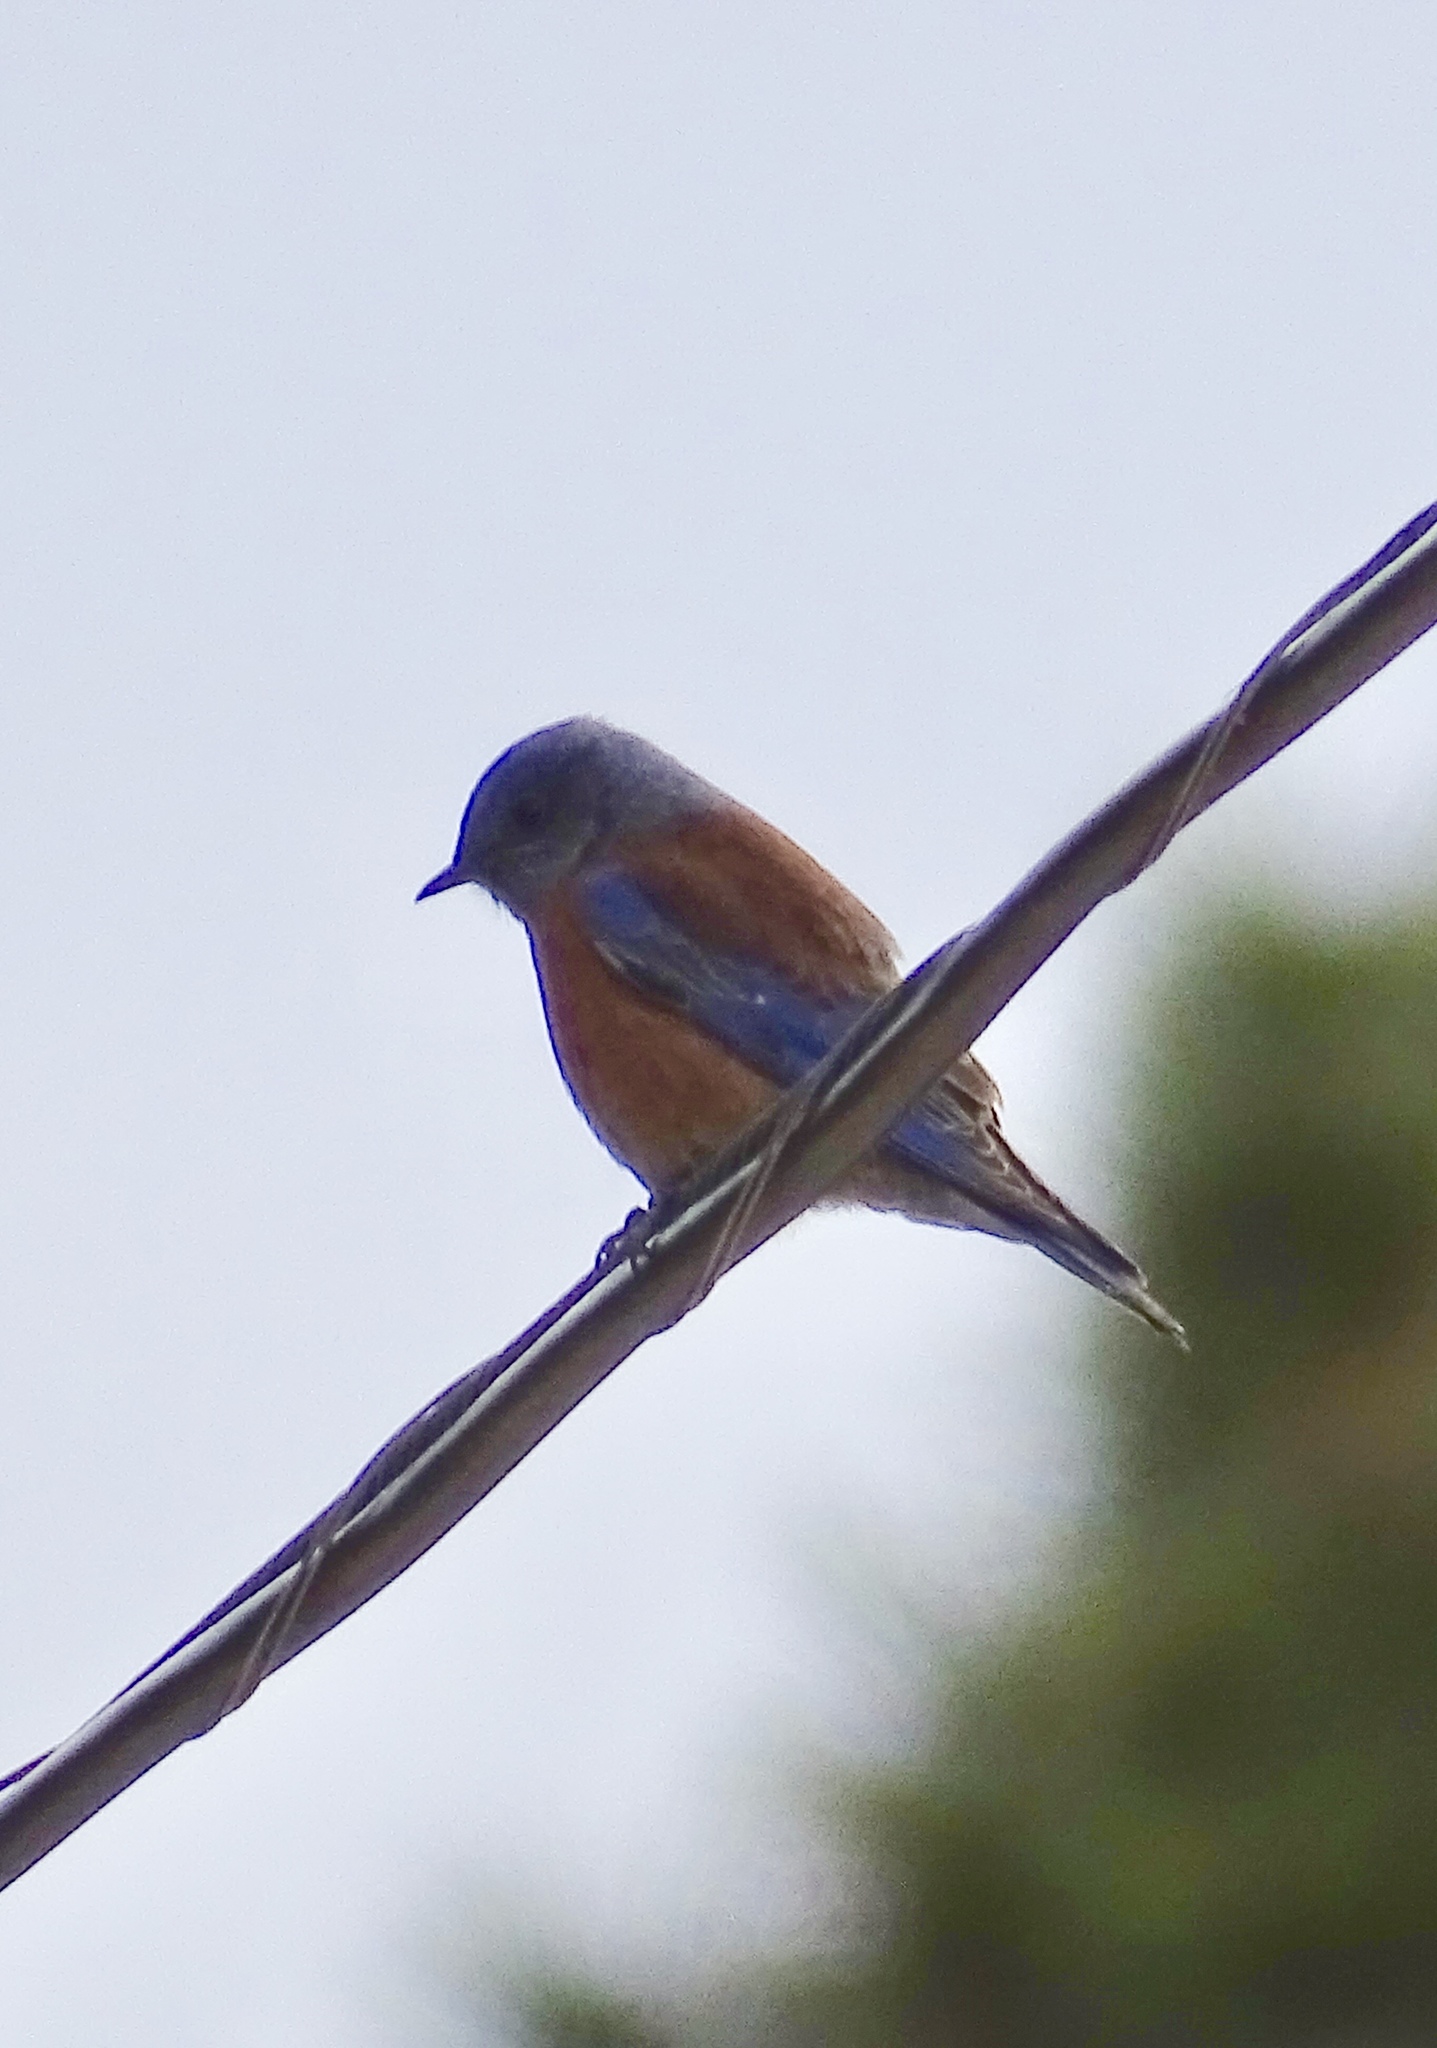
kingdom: Animalia
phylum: Chordata
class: Aves
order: Passeriformes
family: Turdidae
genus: Sialia
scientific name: Sialia mexicana
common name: Western bluebird
